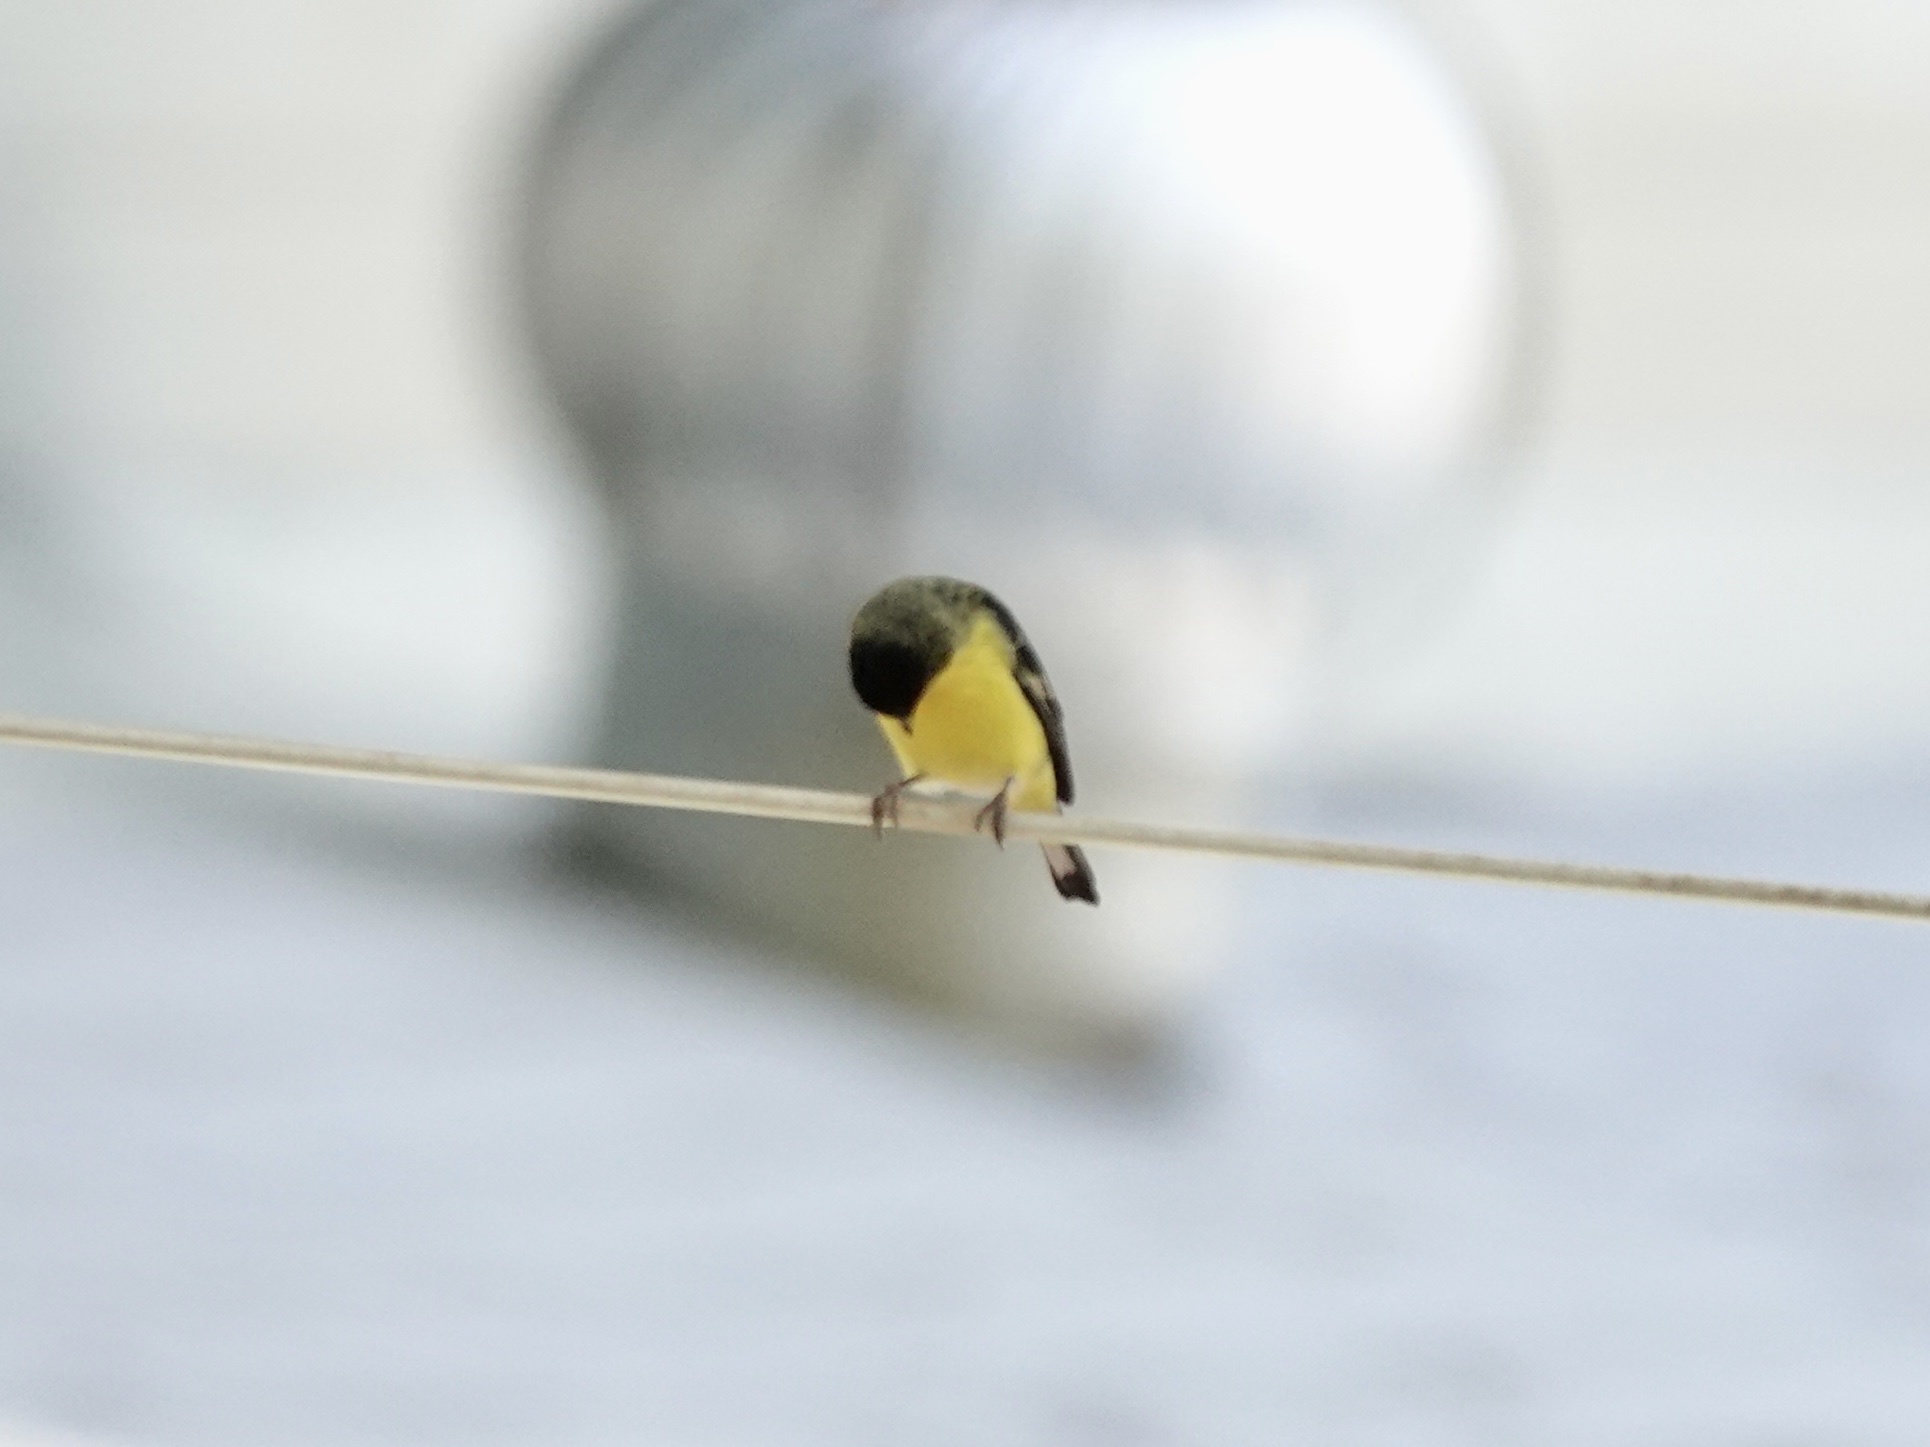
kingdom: Animalia
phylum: Chordata
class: Aves
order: Passeriformes
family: Fringillidae
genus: Spinus
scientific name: Spinus psaltria
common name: Lesser goldfinch
